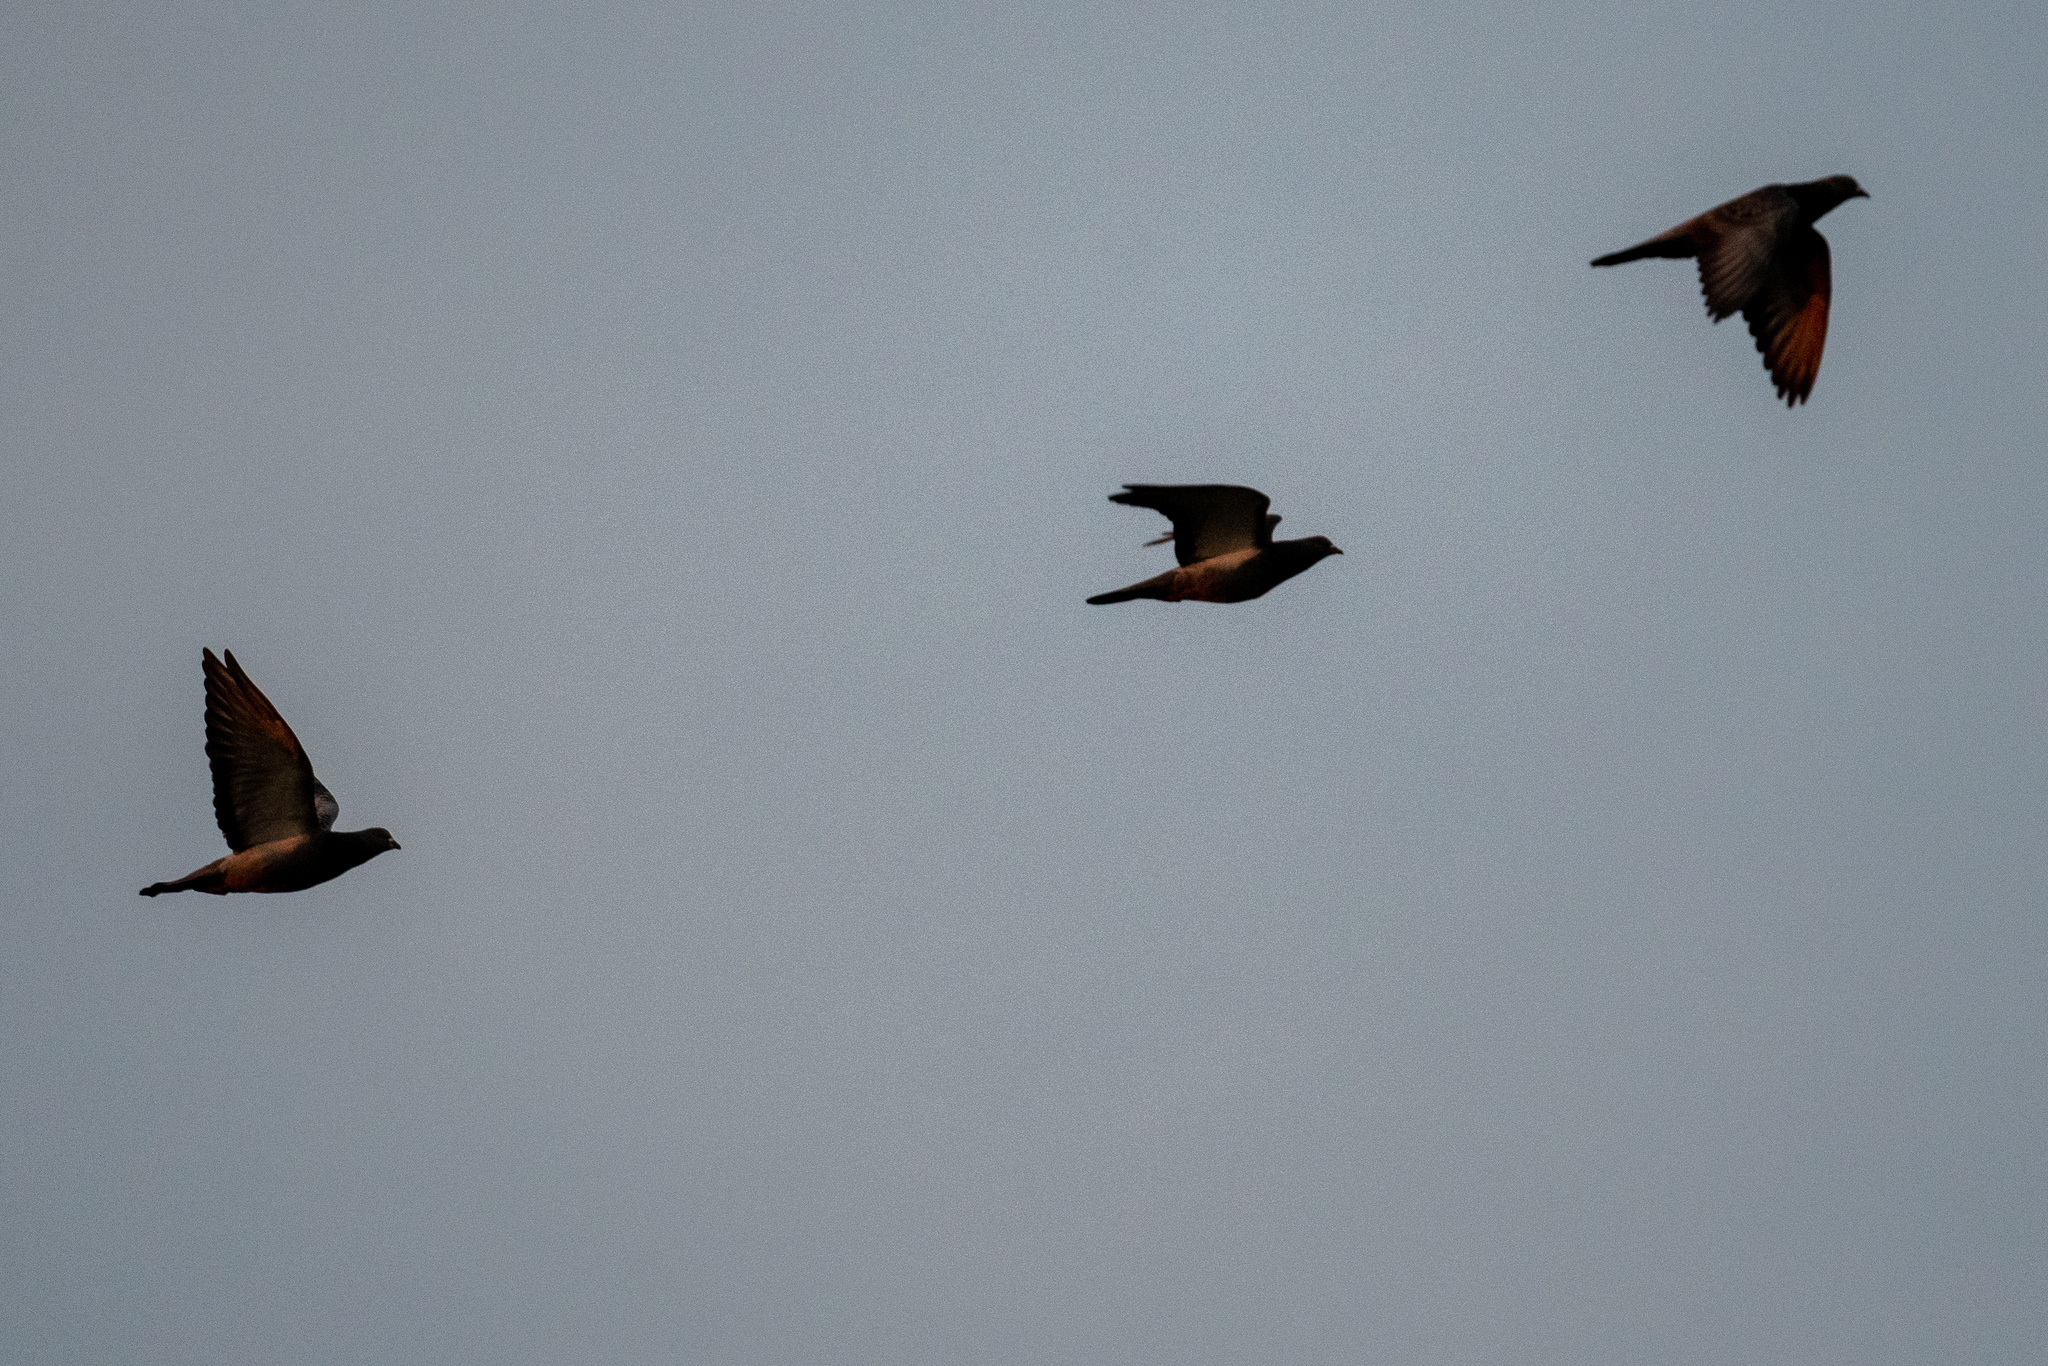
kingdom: Animalia
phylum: Chordata
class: Aves
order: Columbiformes
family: Columbidae
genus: Columba
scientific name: Columba livia
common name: Rock pigeon
